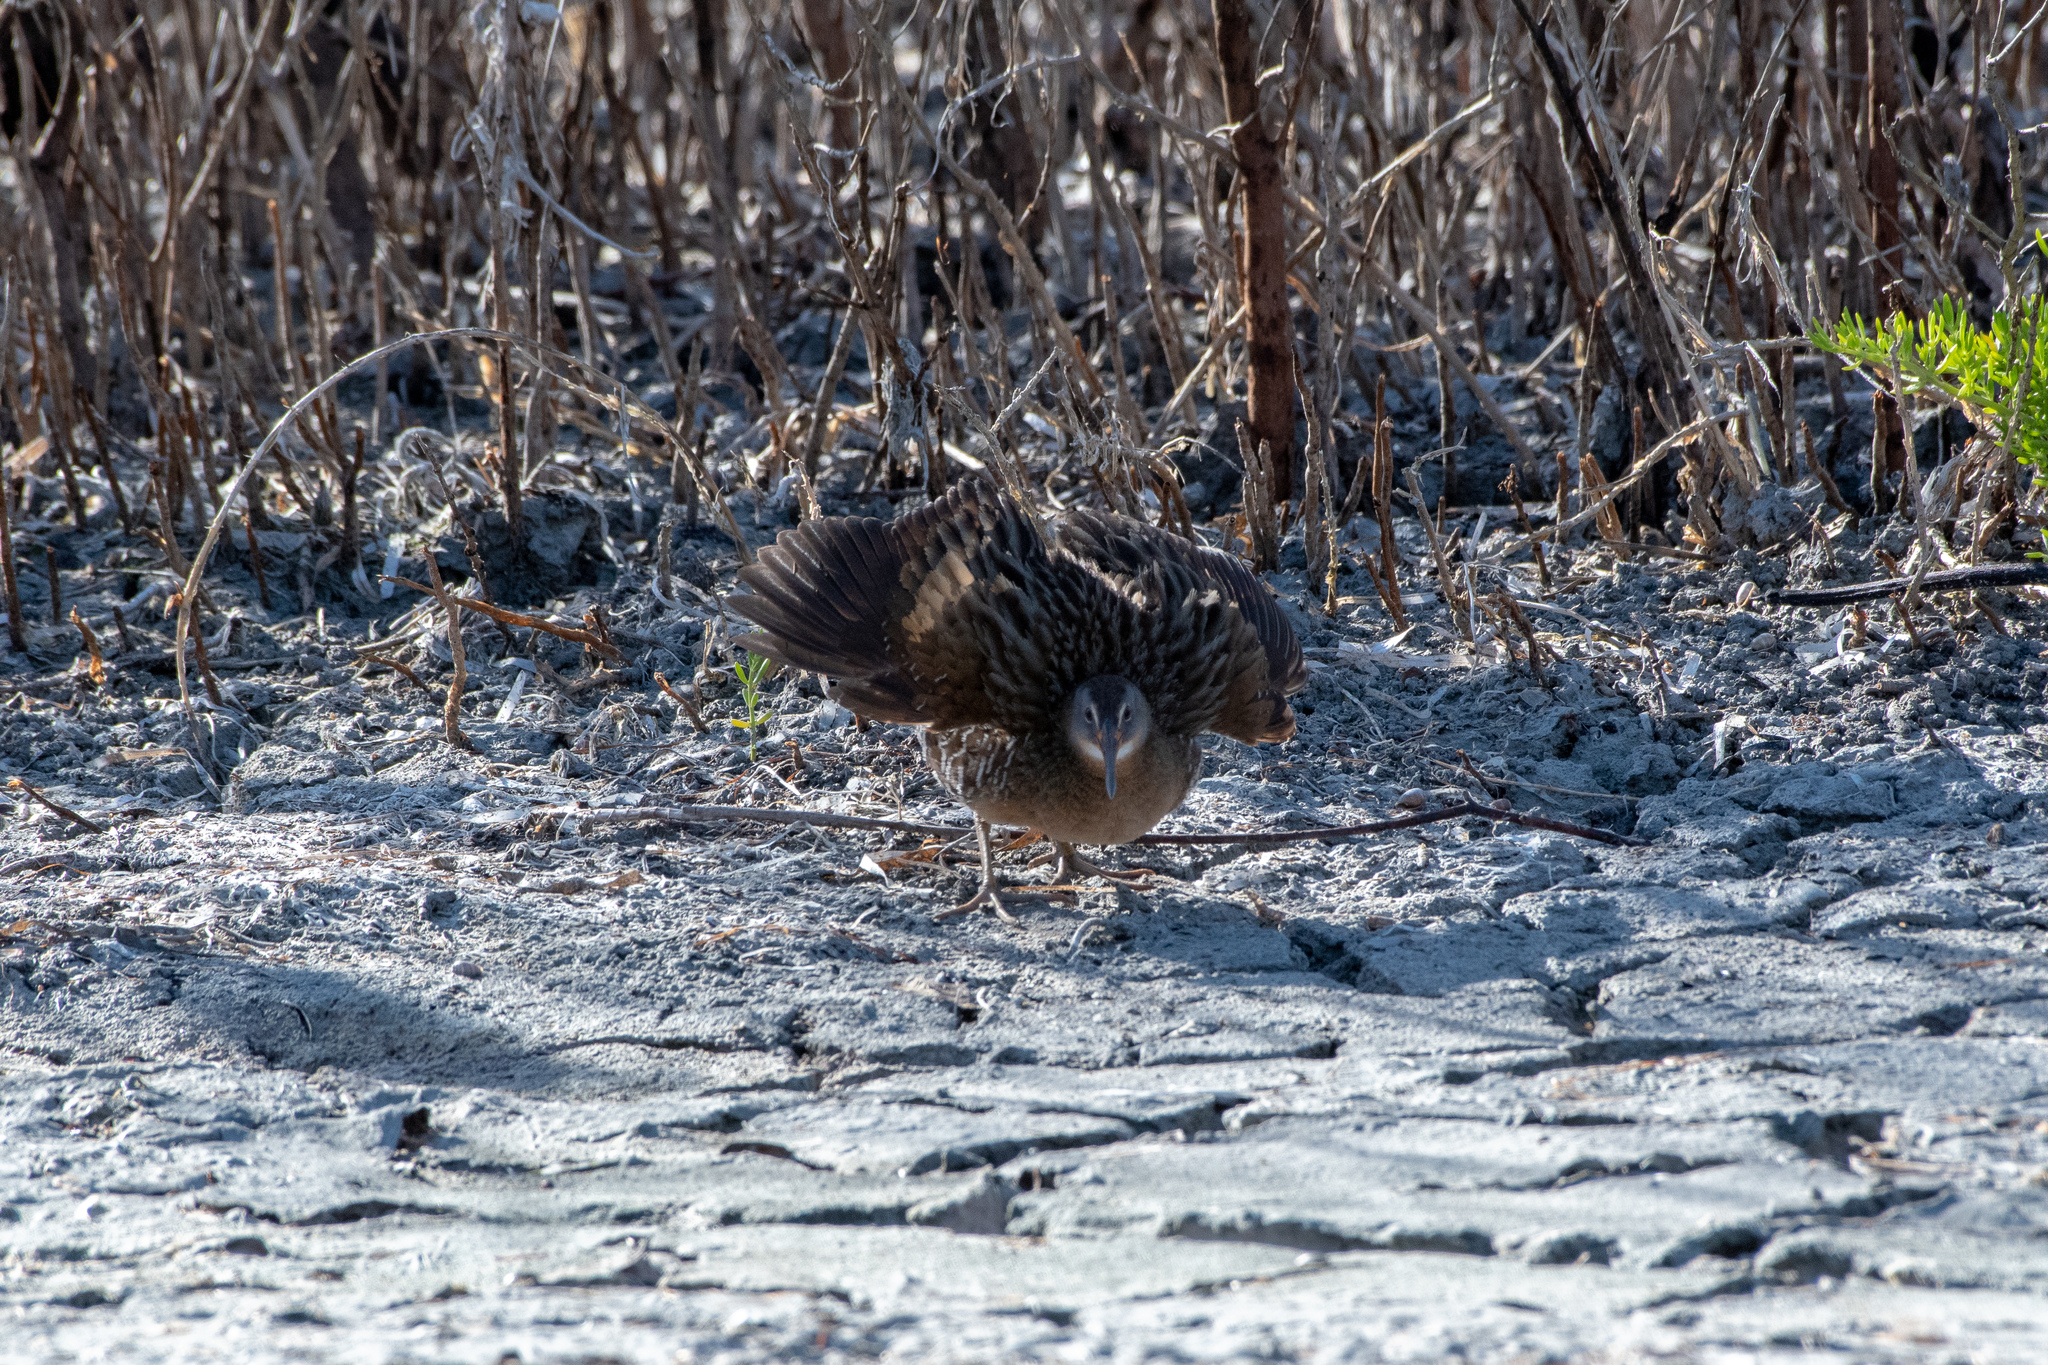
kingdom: Animalia
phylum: Chordata
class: Aves
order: Gruiformes
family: Rallidae
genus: Rallus
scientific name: Rallus crepitans
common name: Clapper rail
